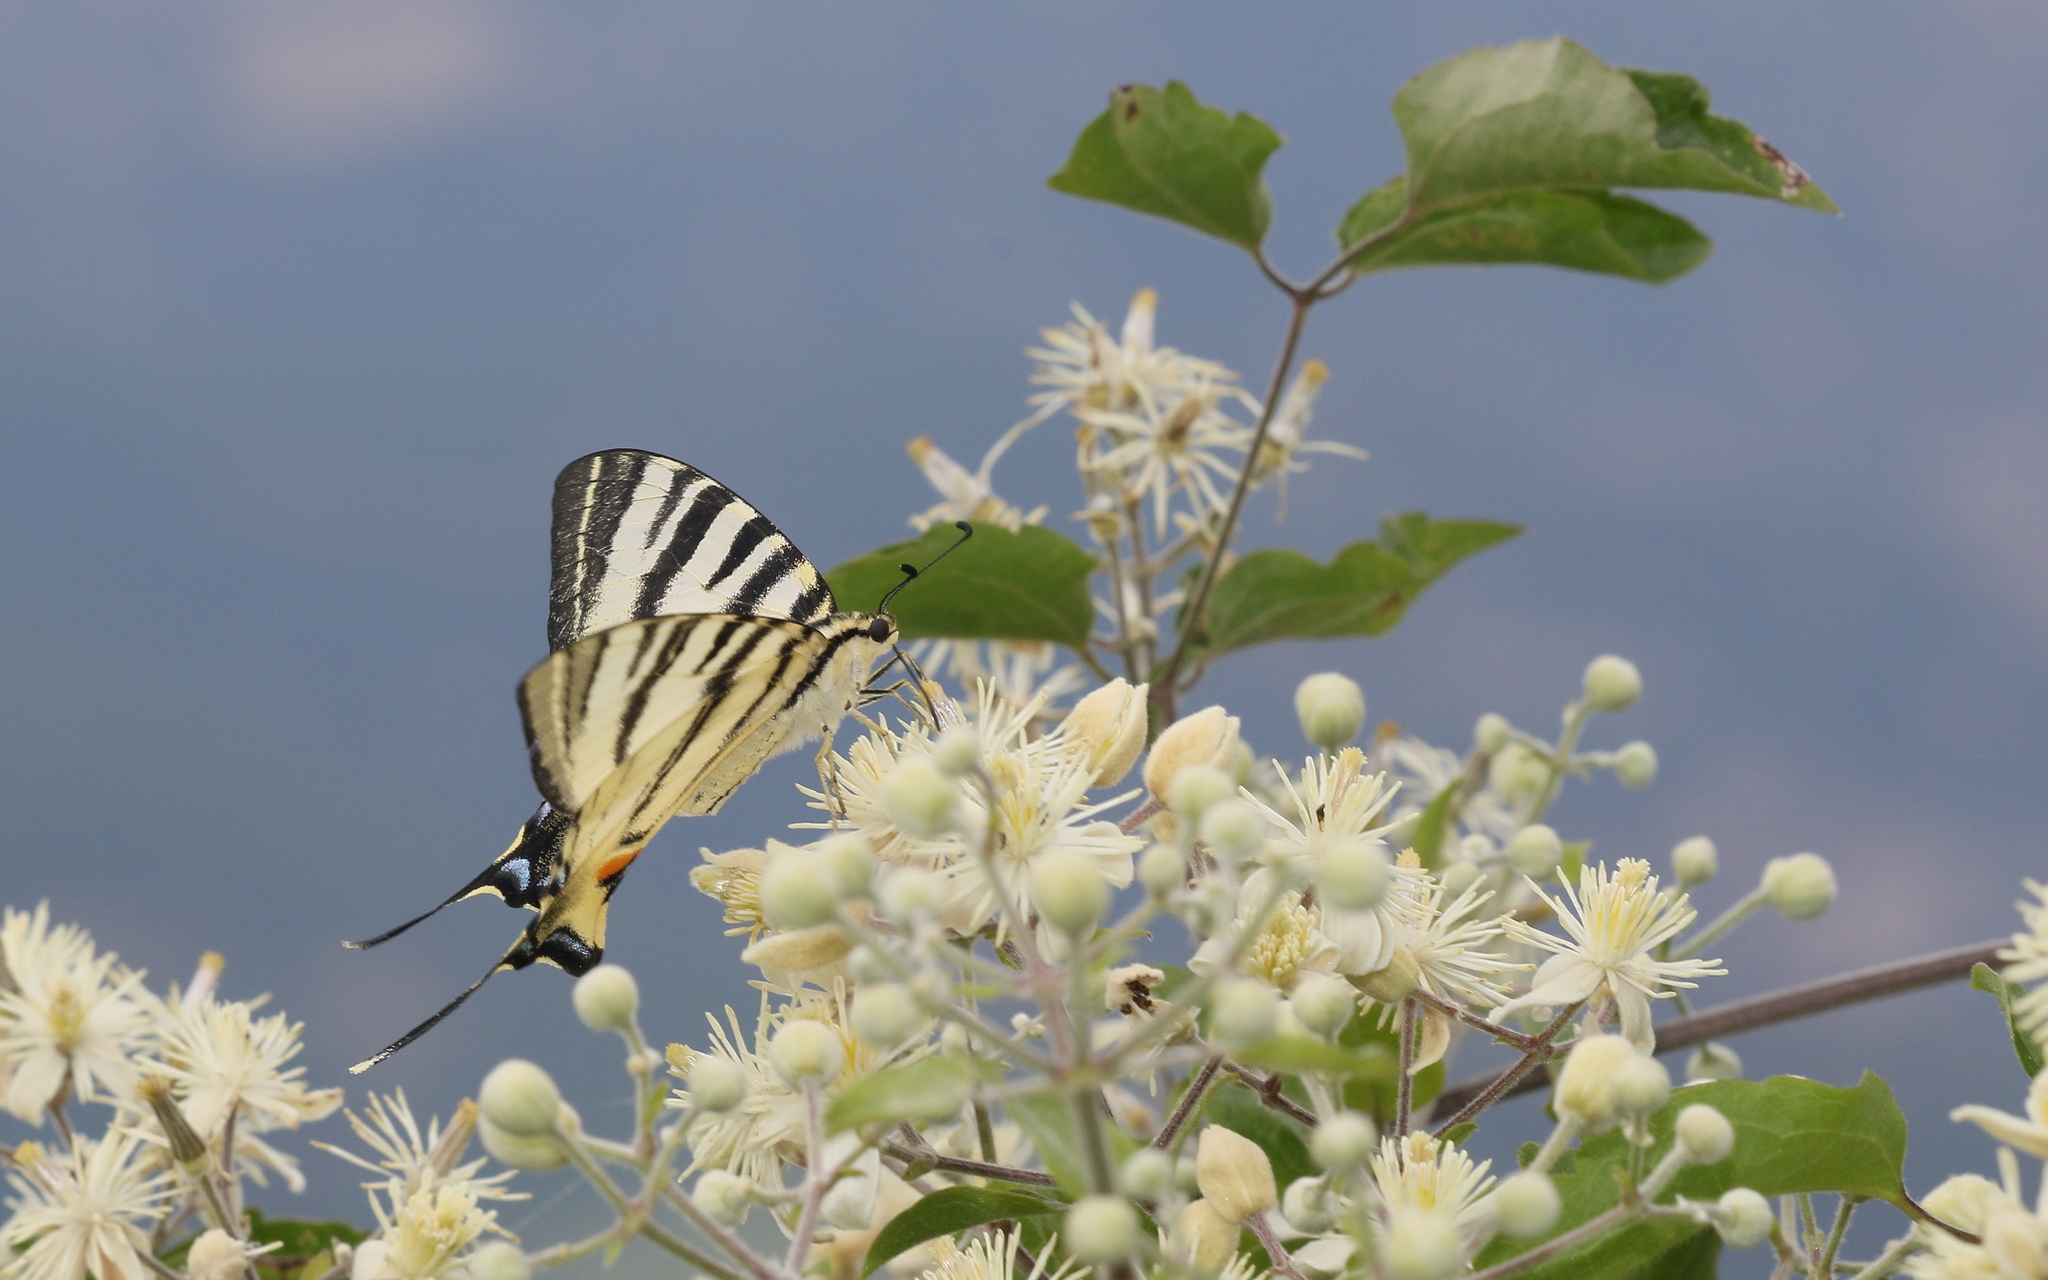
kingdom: Animalia
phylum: Arthropoda
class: Insecta
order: Lepidoptera
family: Papilionidae
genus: Iphiclides
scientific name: Iphiclides podalirius
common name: Scarce swallowtail
